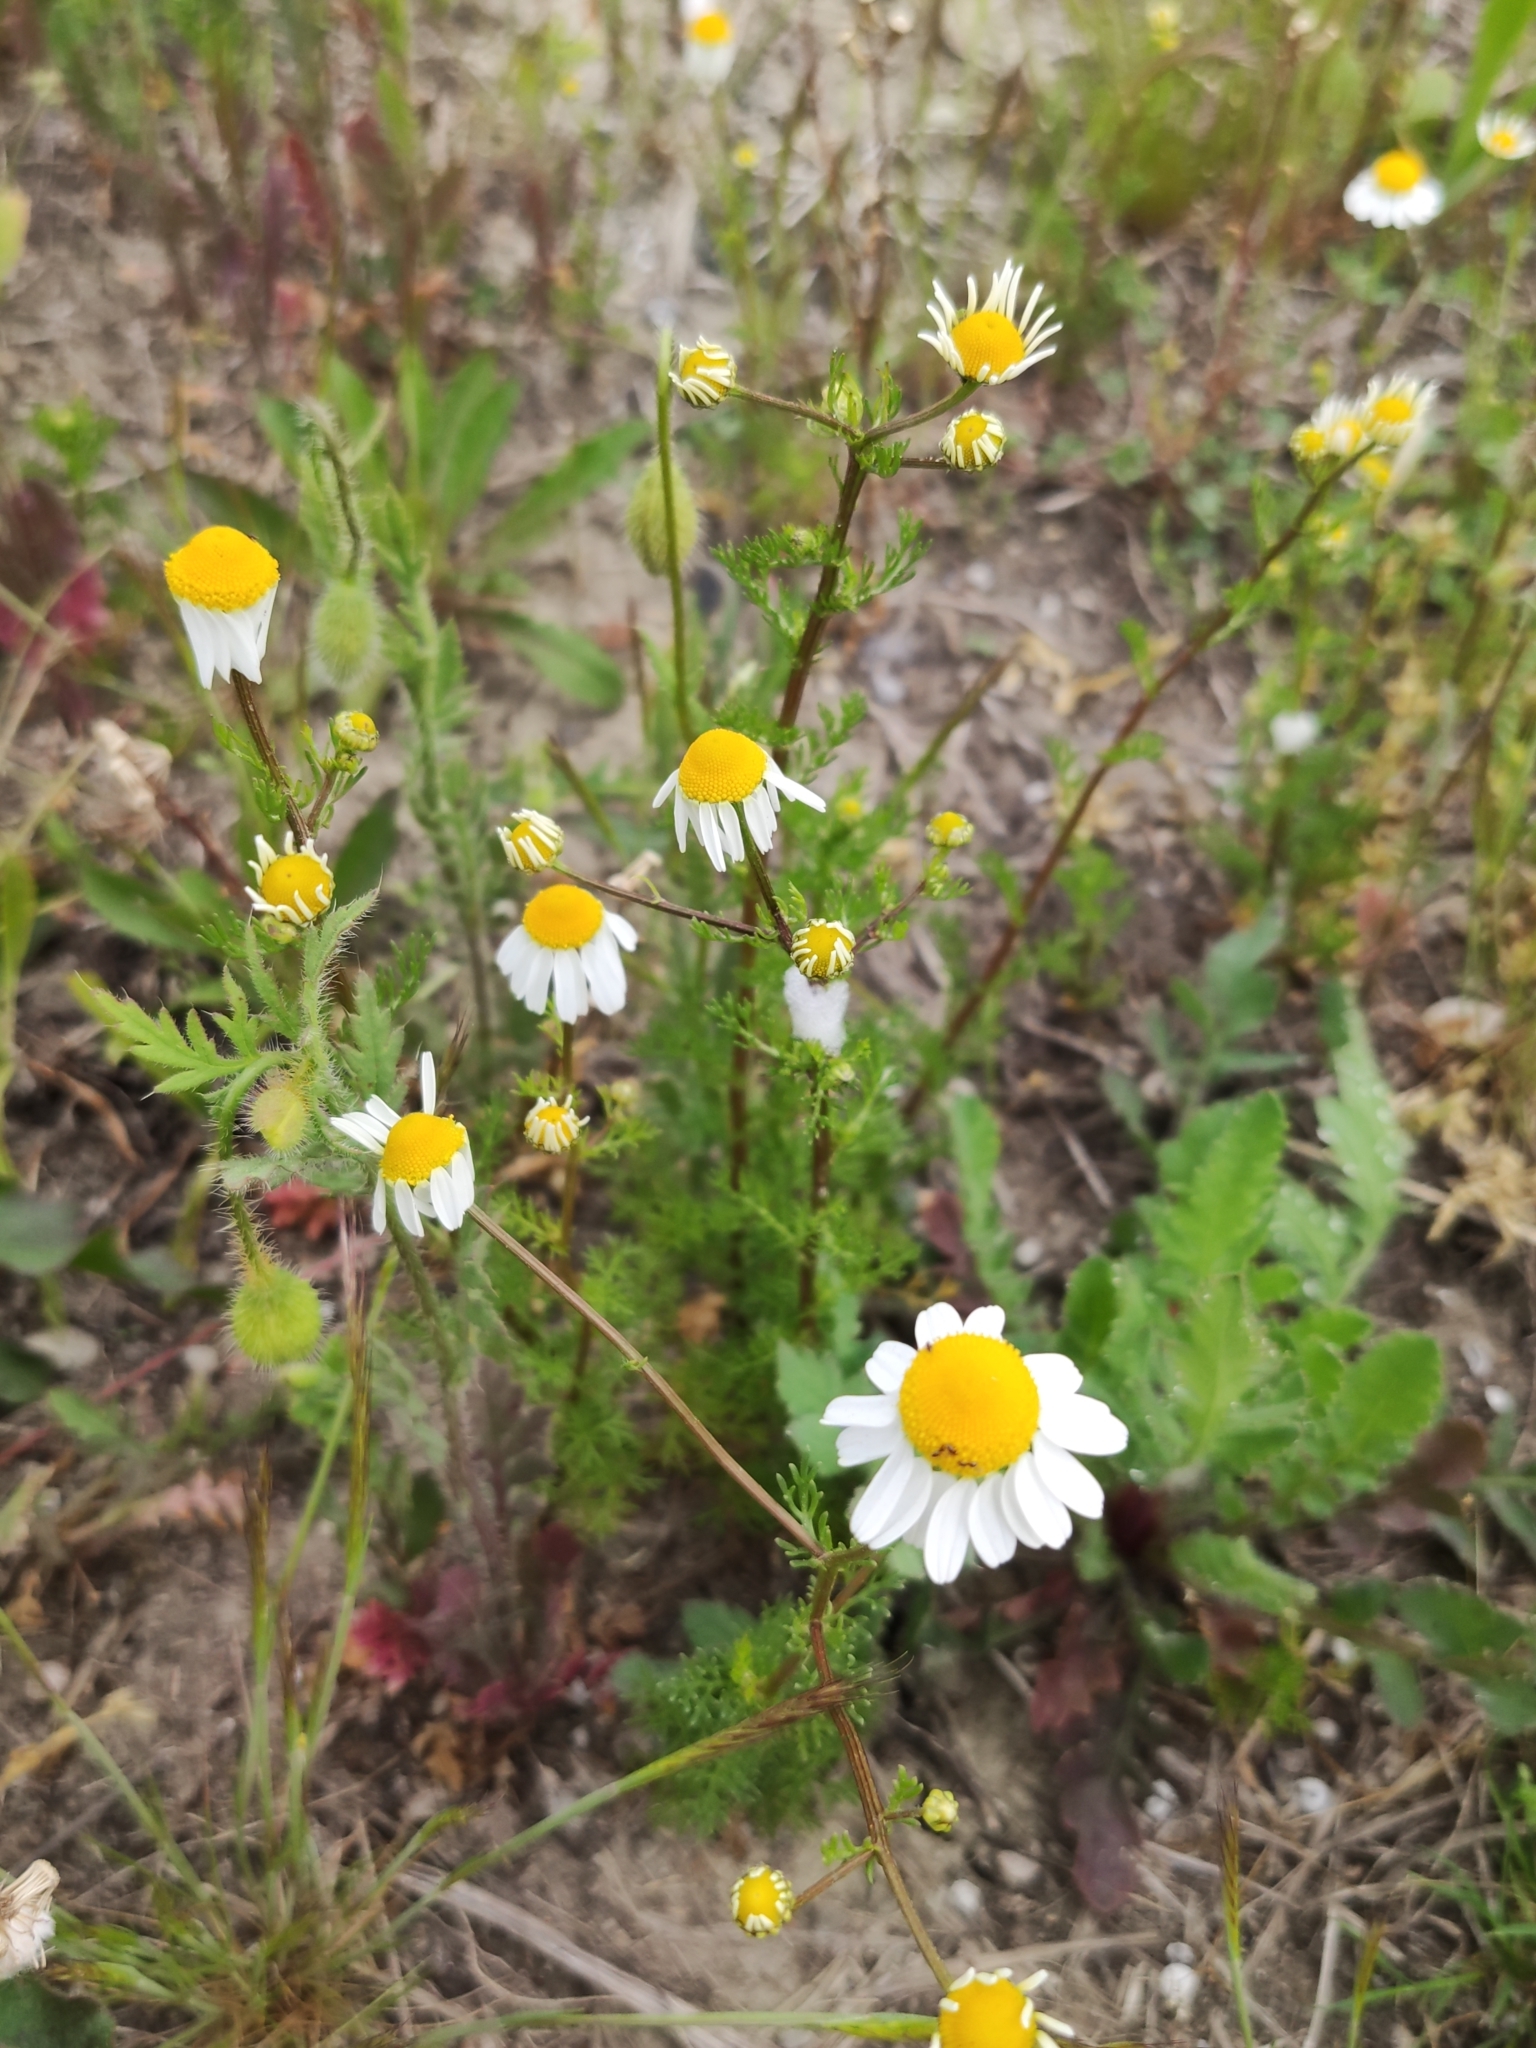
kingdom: Plantae
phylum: Tracheophyta
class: Magnoliopsida
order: Asterales
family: Asteraceae
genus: Matricaria
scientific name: Matricaria chamomilla
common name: Scented mayweed
